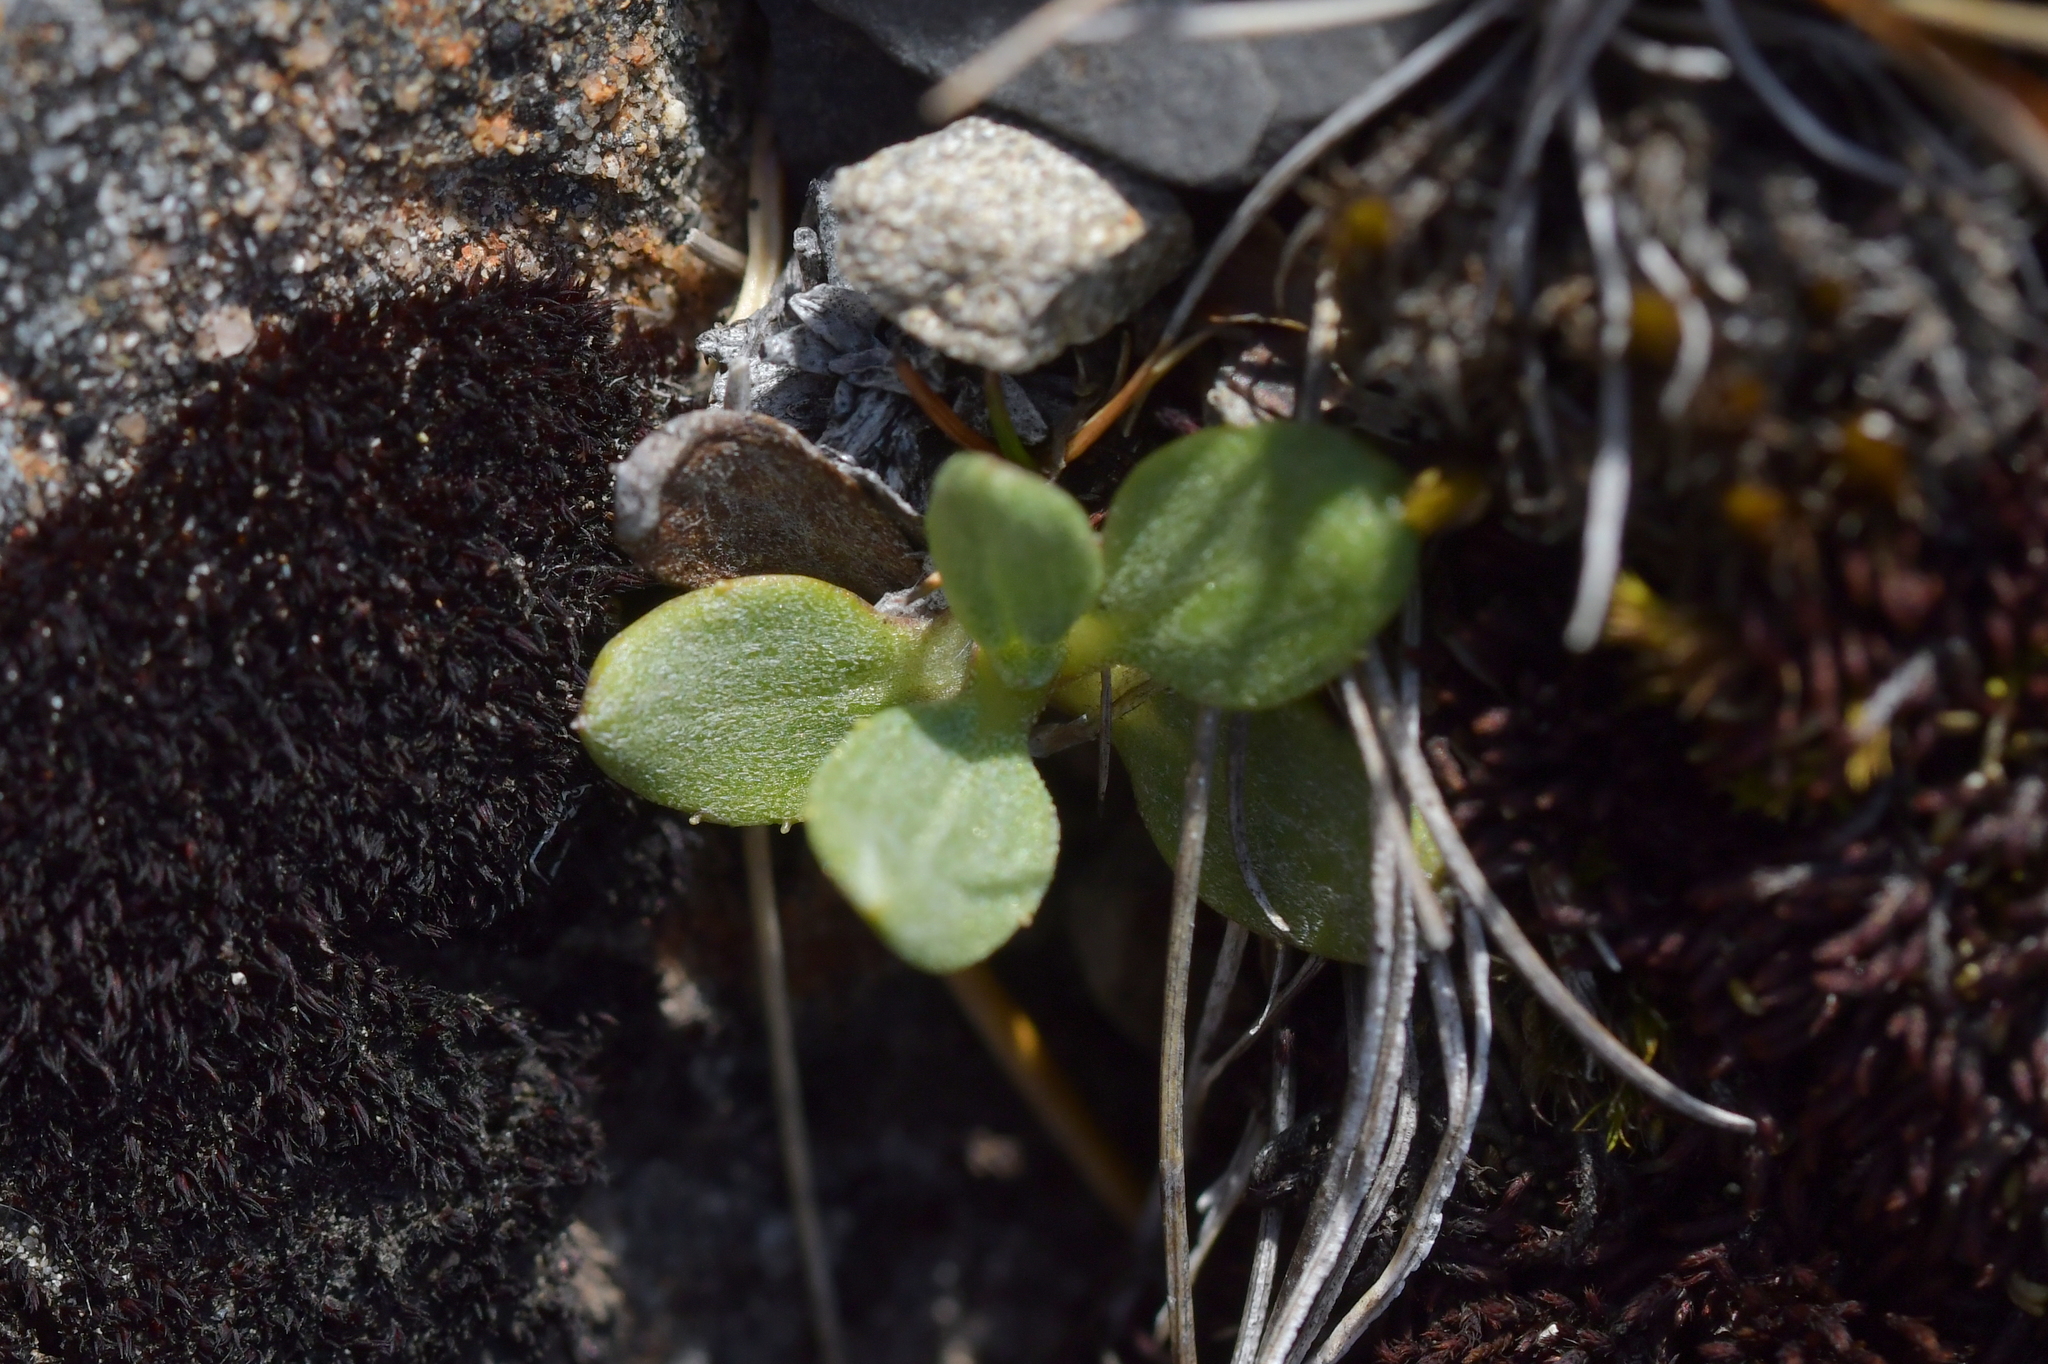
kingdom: Plantae
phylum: Tracheophyta
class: Magnoliopsida
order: Asterales
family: Asteraceae
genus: Celmisia
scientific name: Celmisia discolor
